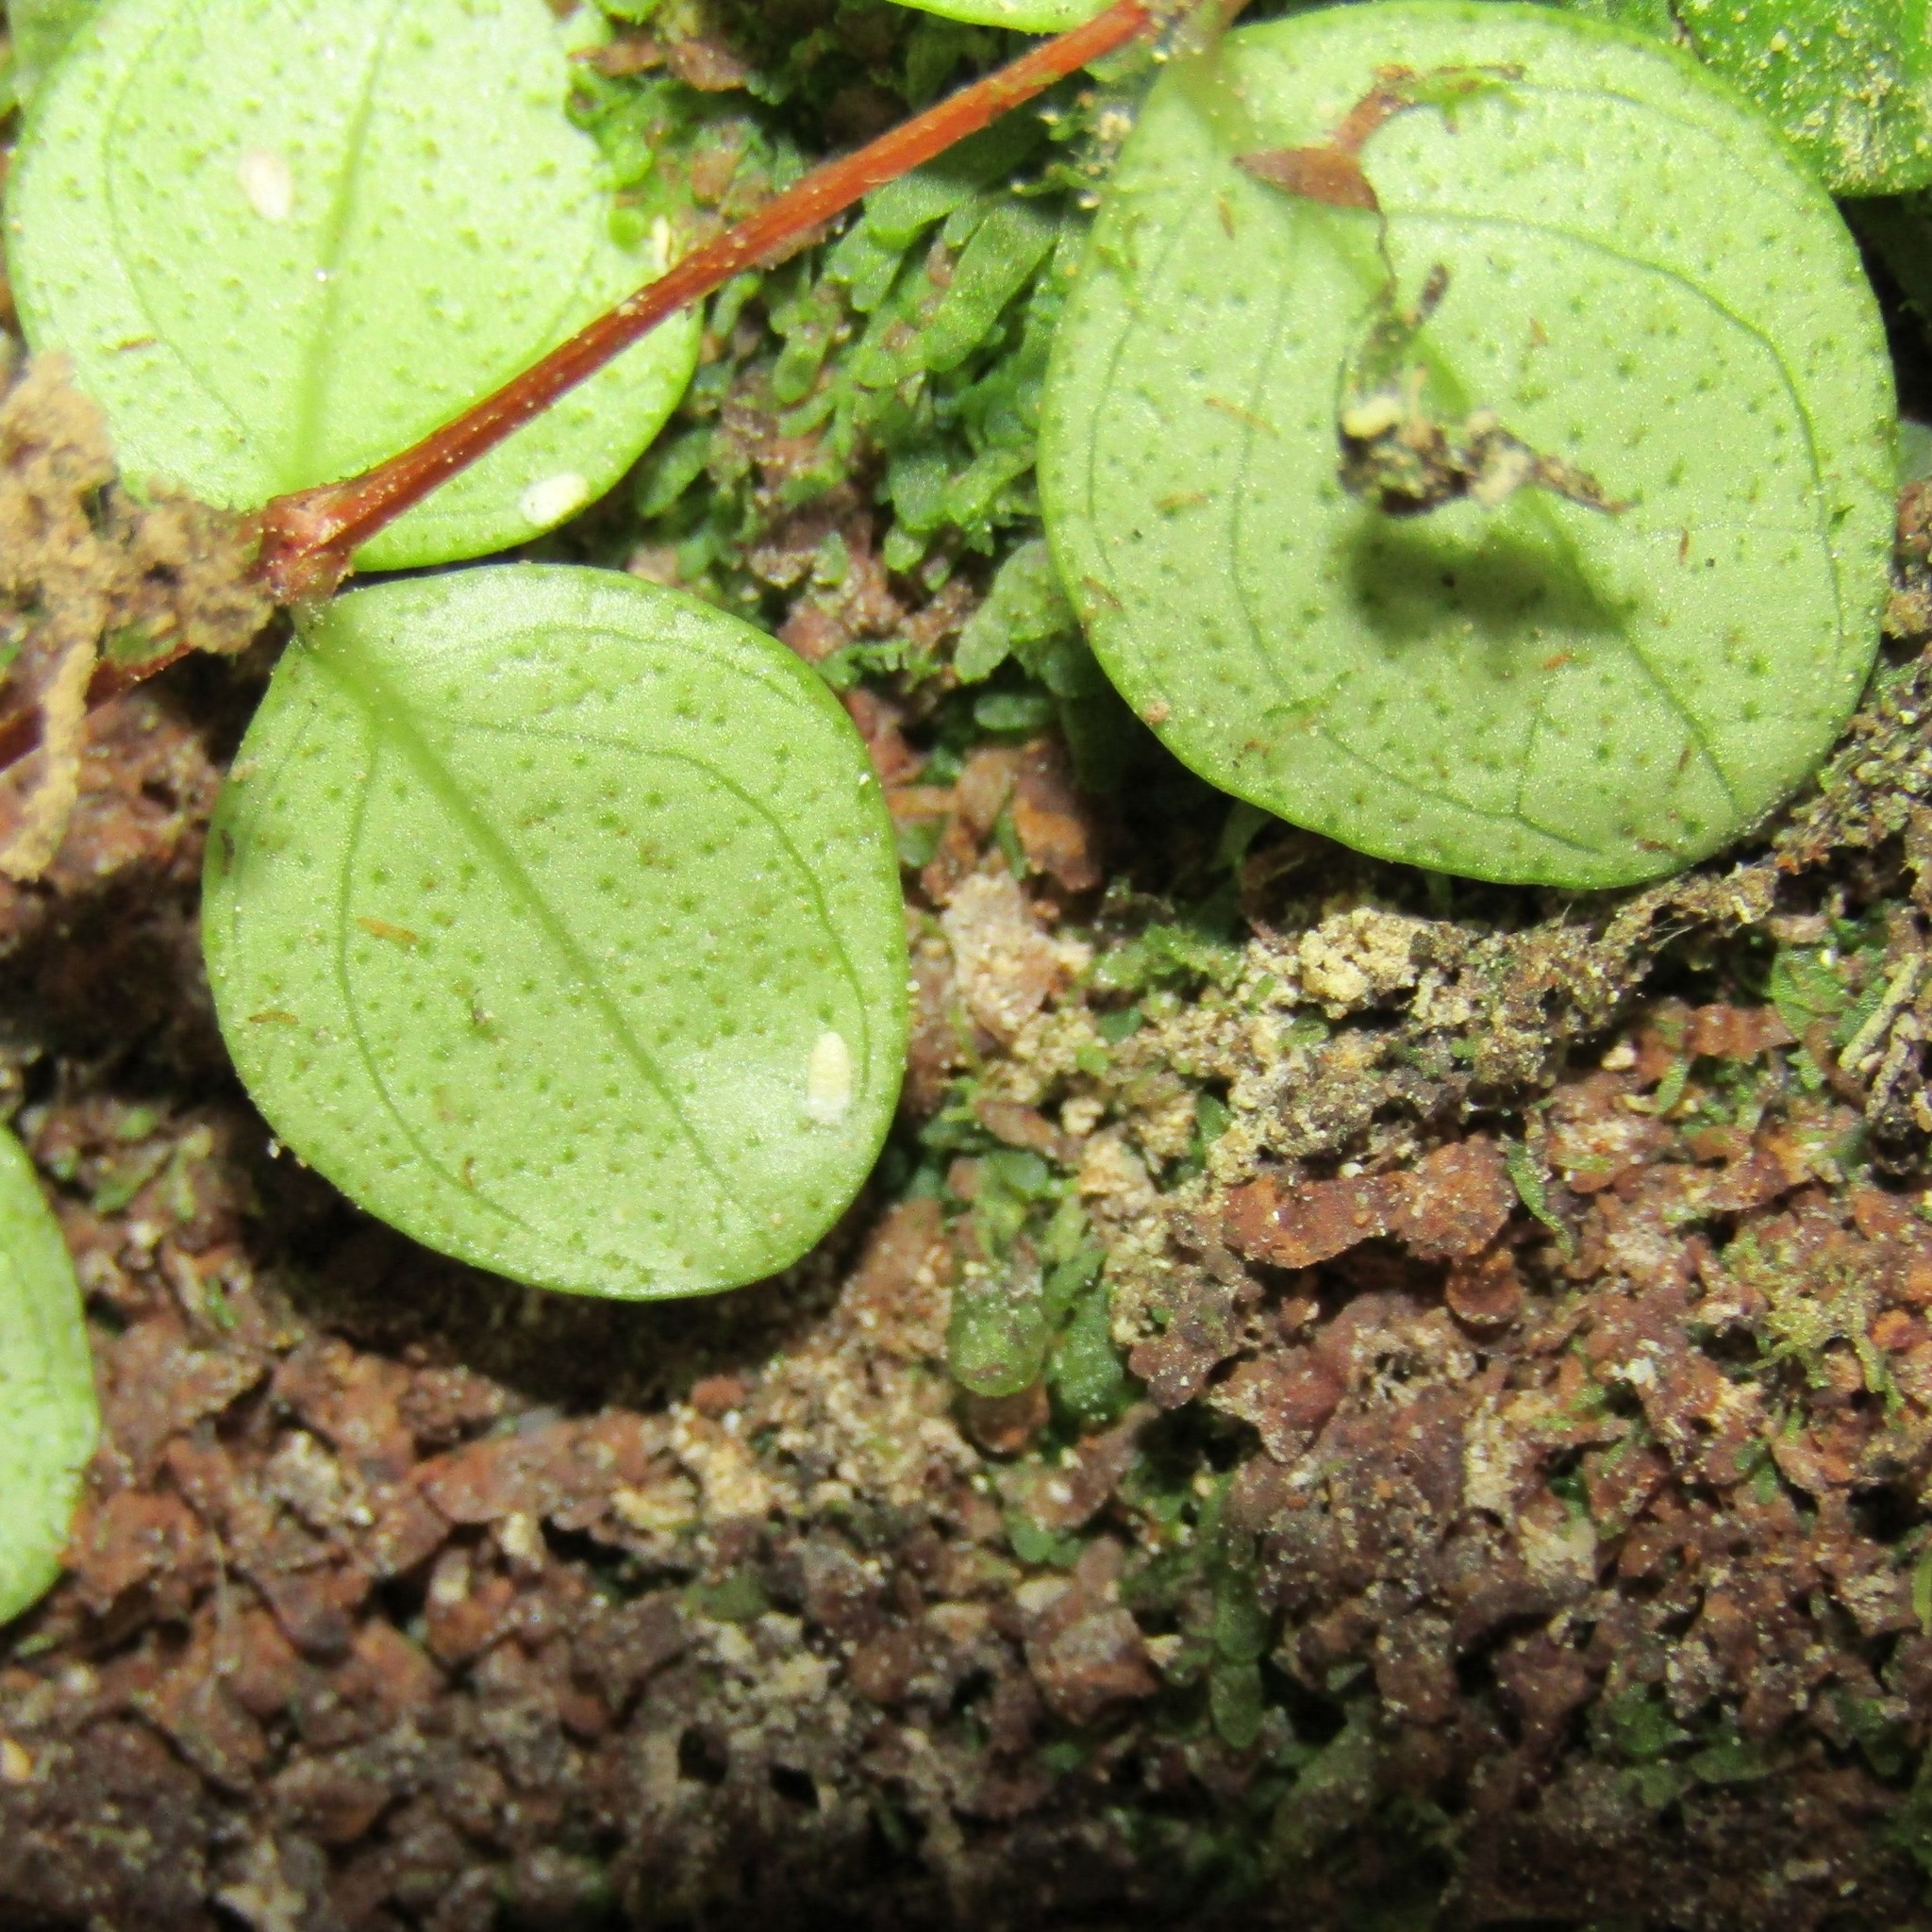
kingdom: Plantae
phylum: Tracheophyta
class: Magnoliopsida
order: Myrtales
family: Myrtaceae
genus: Metrosideros
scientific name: Metrosideros perforata
